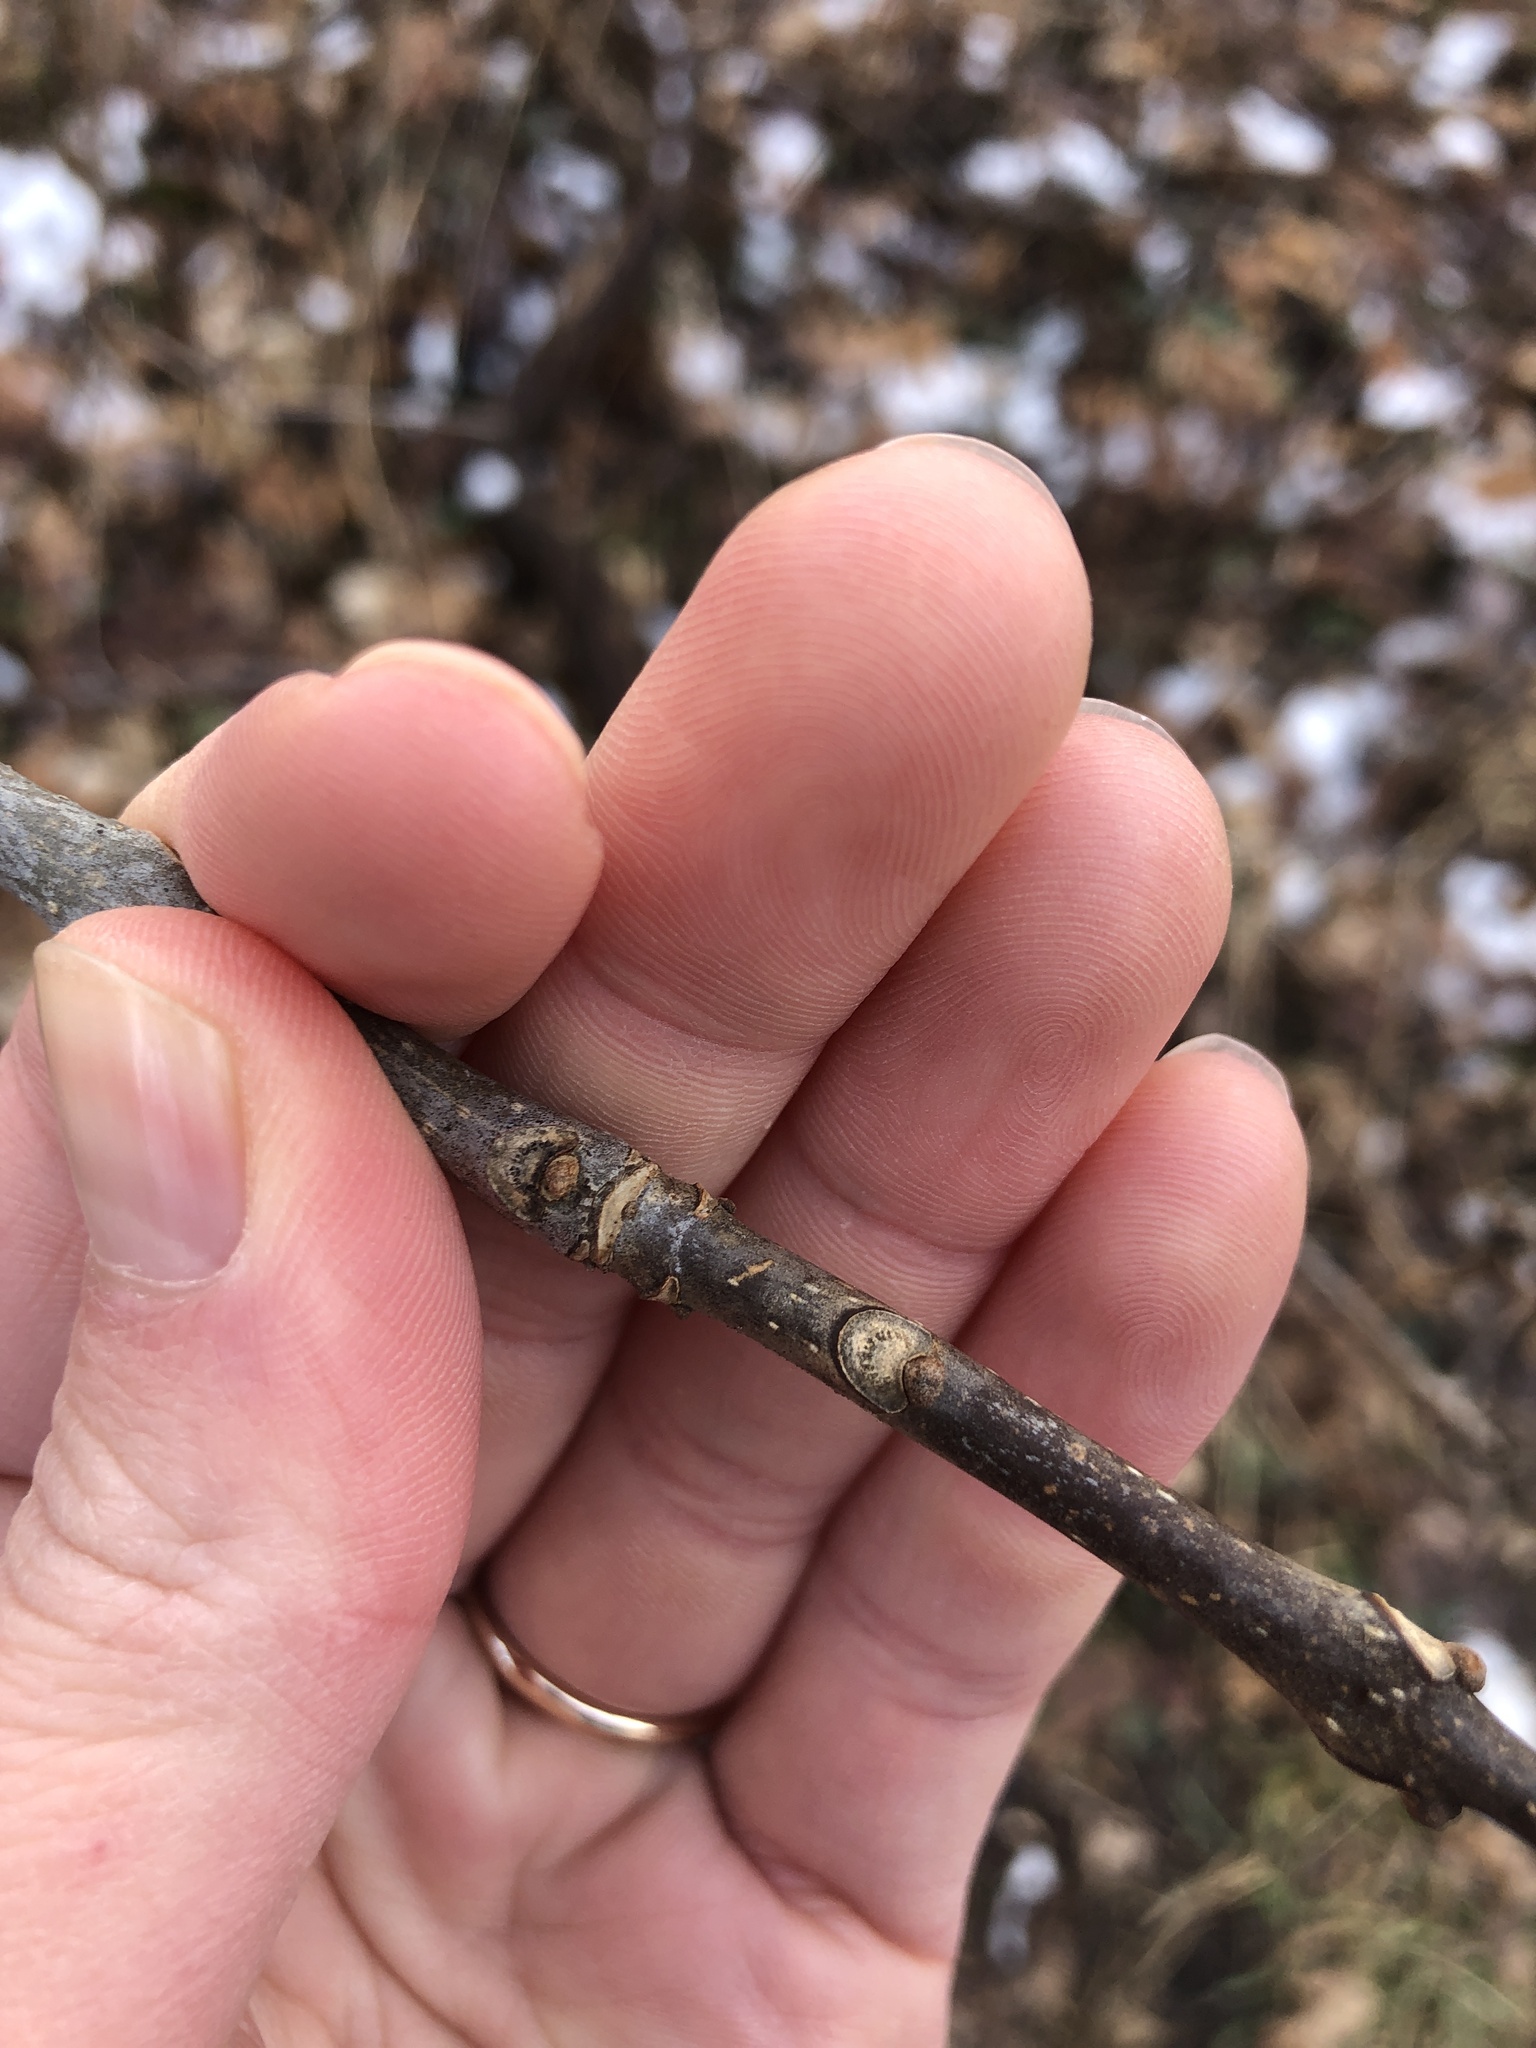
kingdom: Plantae
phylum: Tracheophyta
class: Magnoliopsida
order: Lamiales
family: Oleaceae
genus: Fraxinus
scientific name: Fraxinus americana
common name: White ash
